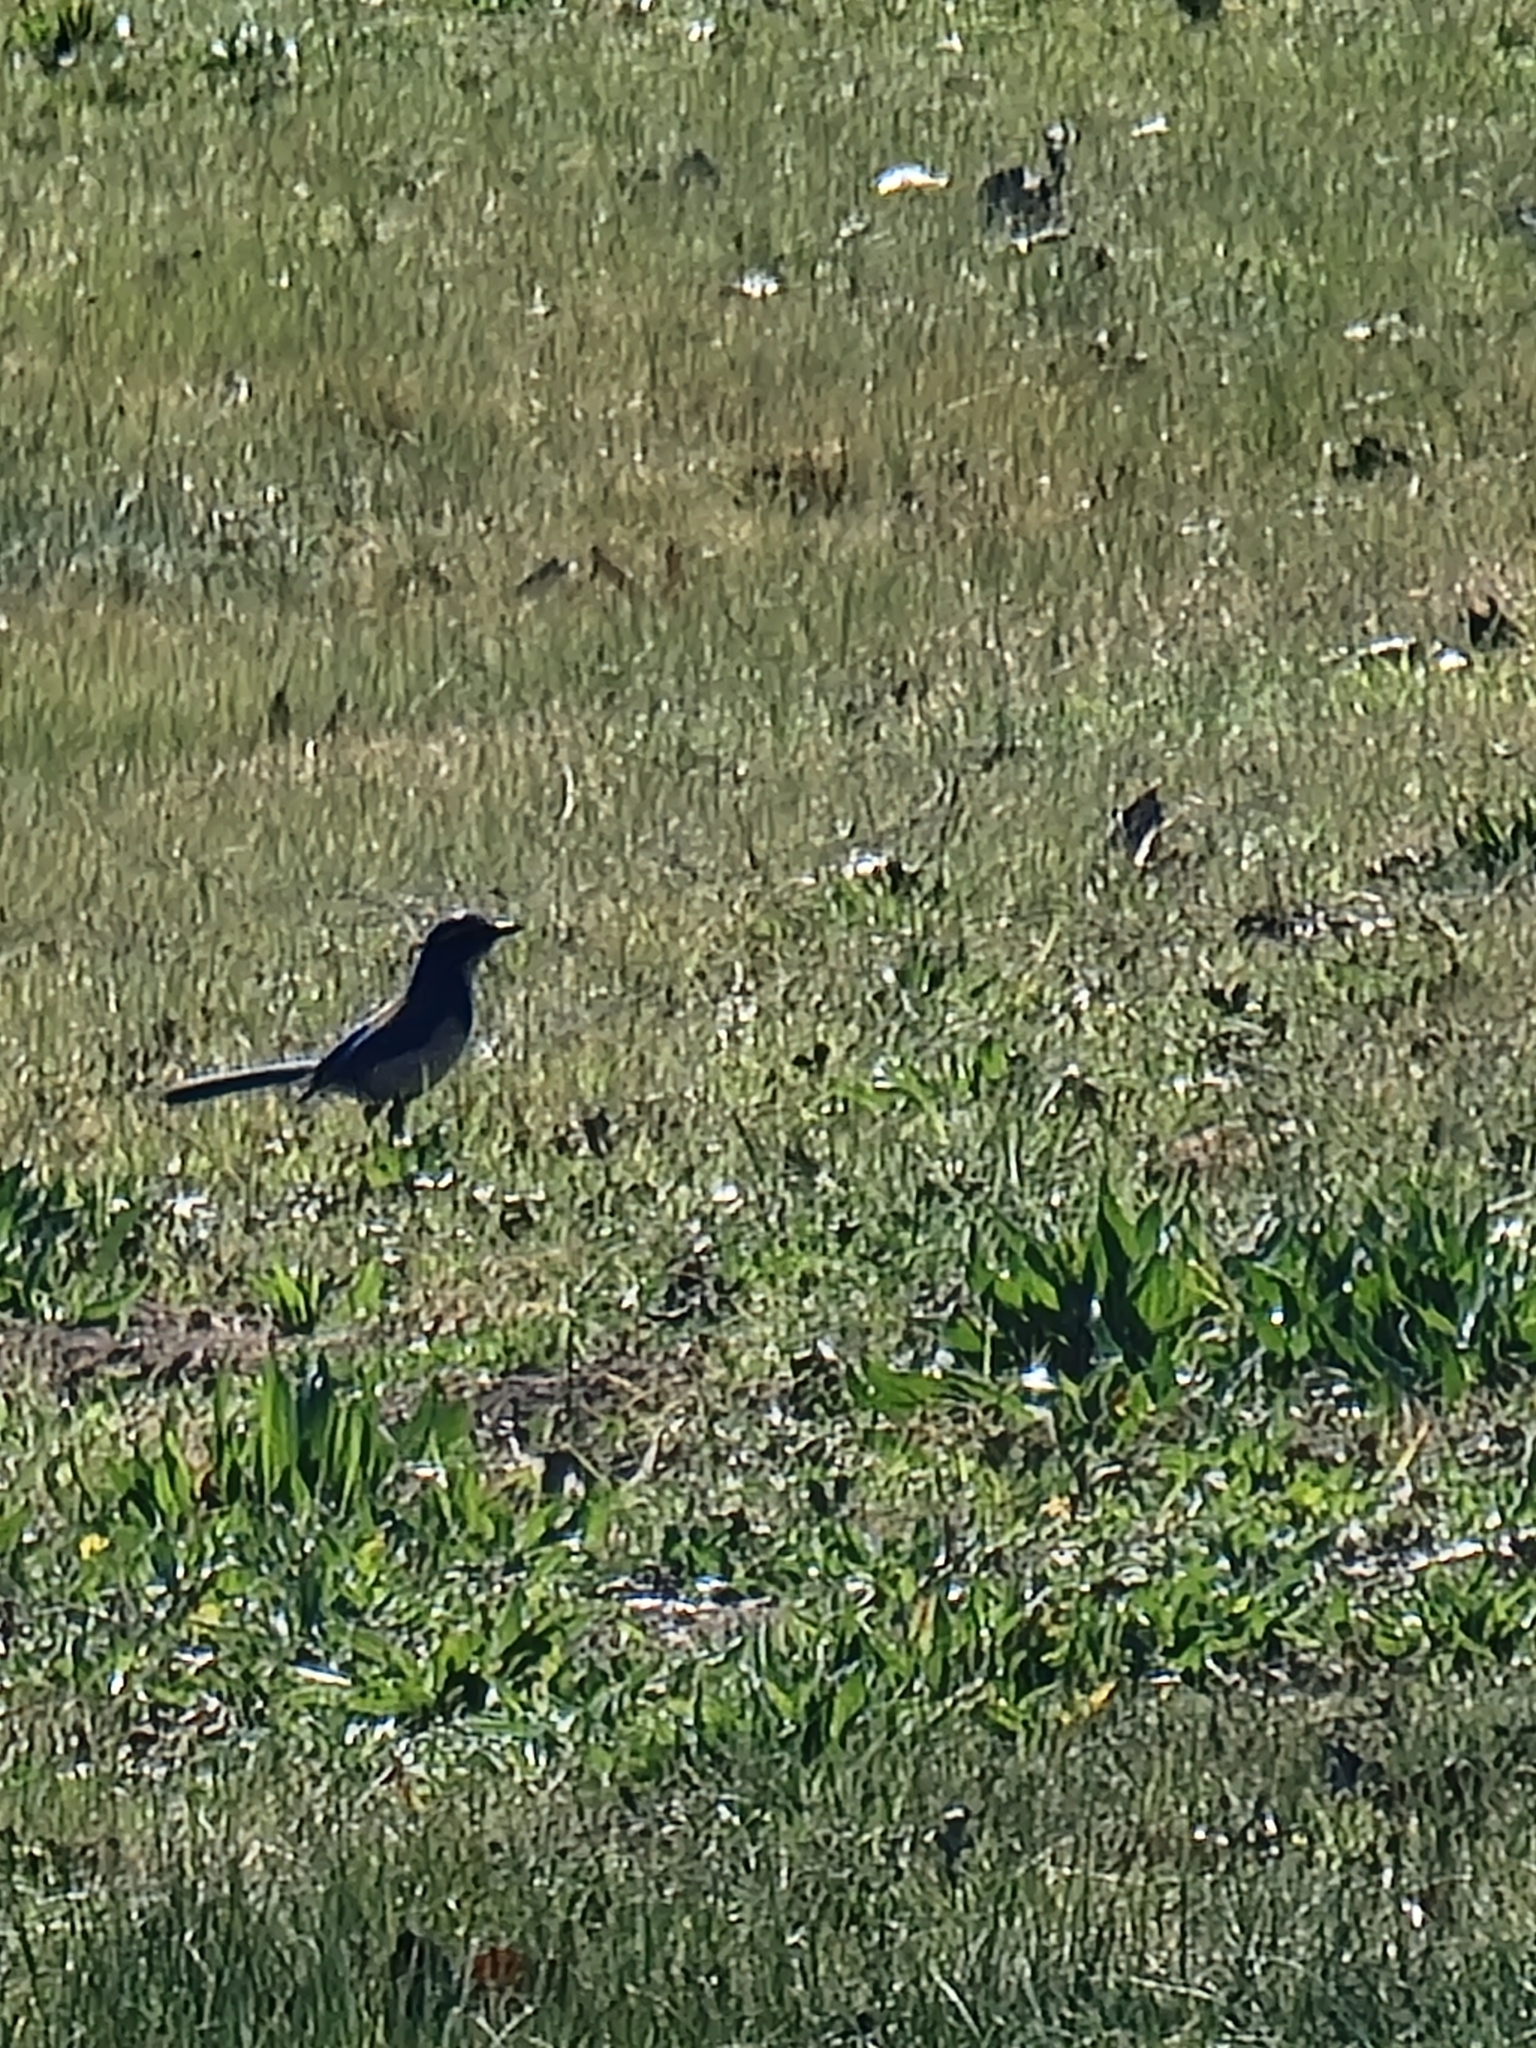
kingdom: Animalia
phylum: Chordata
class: Aves
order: Passeriformes
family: Corvidae
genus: Aphelocoma
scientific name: Aphelocoma californica
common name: California scrub-jay
